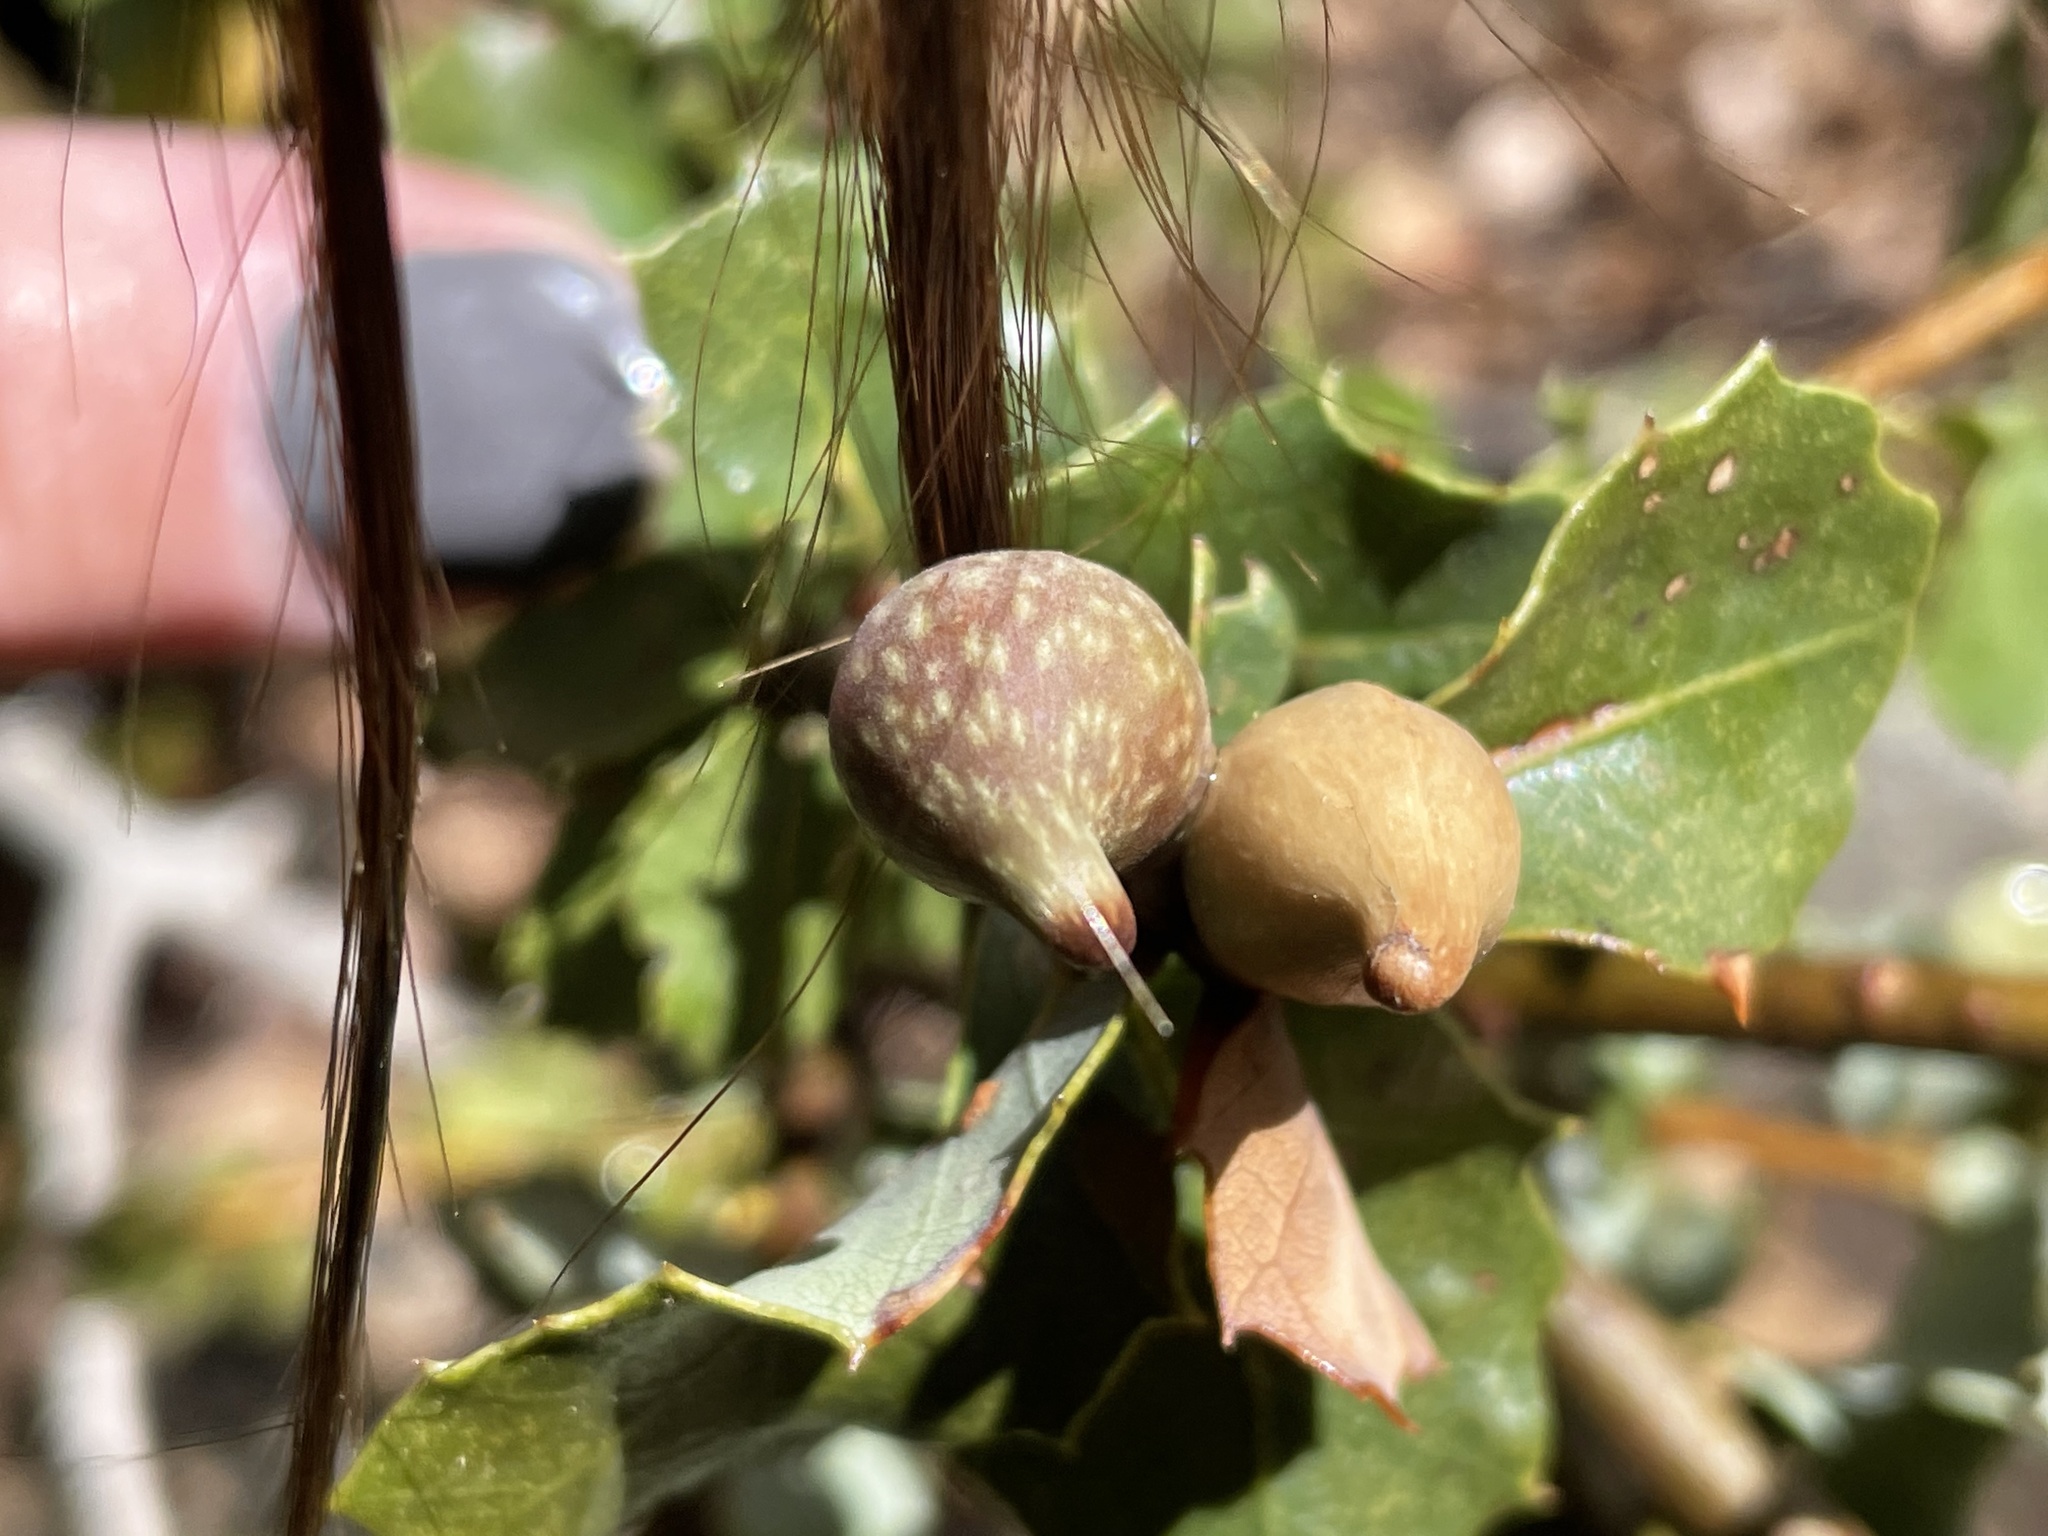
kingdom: Animalia
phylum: Arthropoda
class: Insecta
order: Hymenoptera
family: Cynipidae
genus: Heteroecus
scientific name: Heteroecus pacificus
